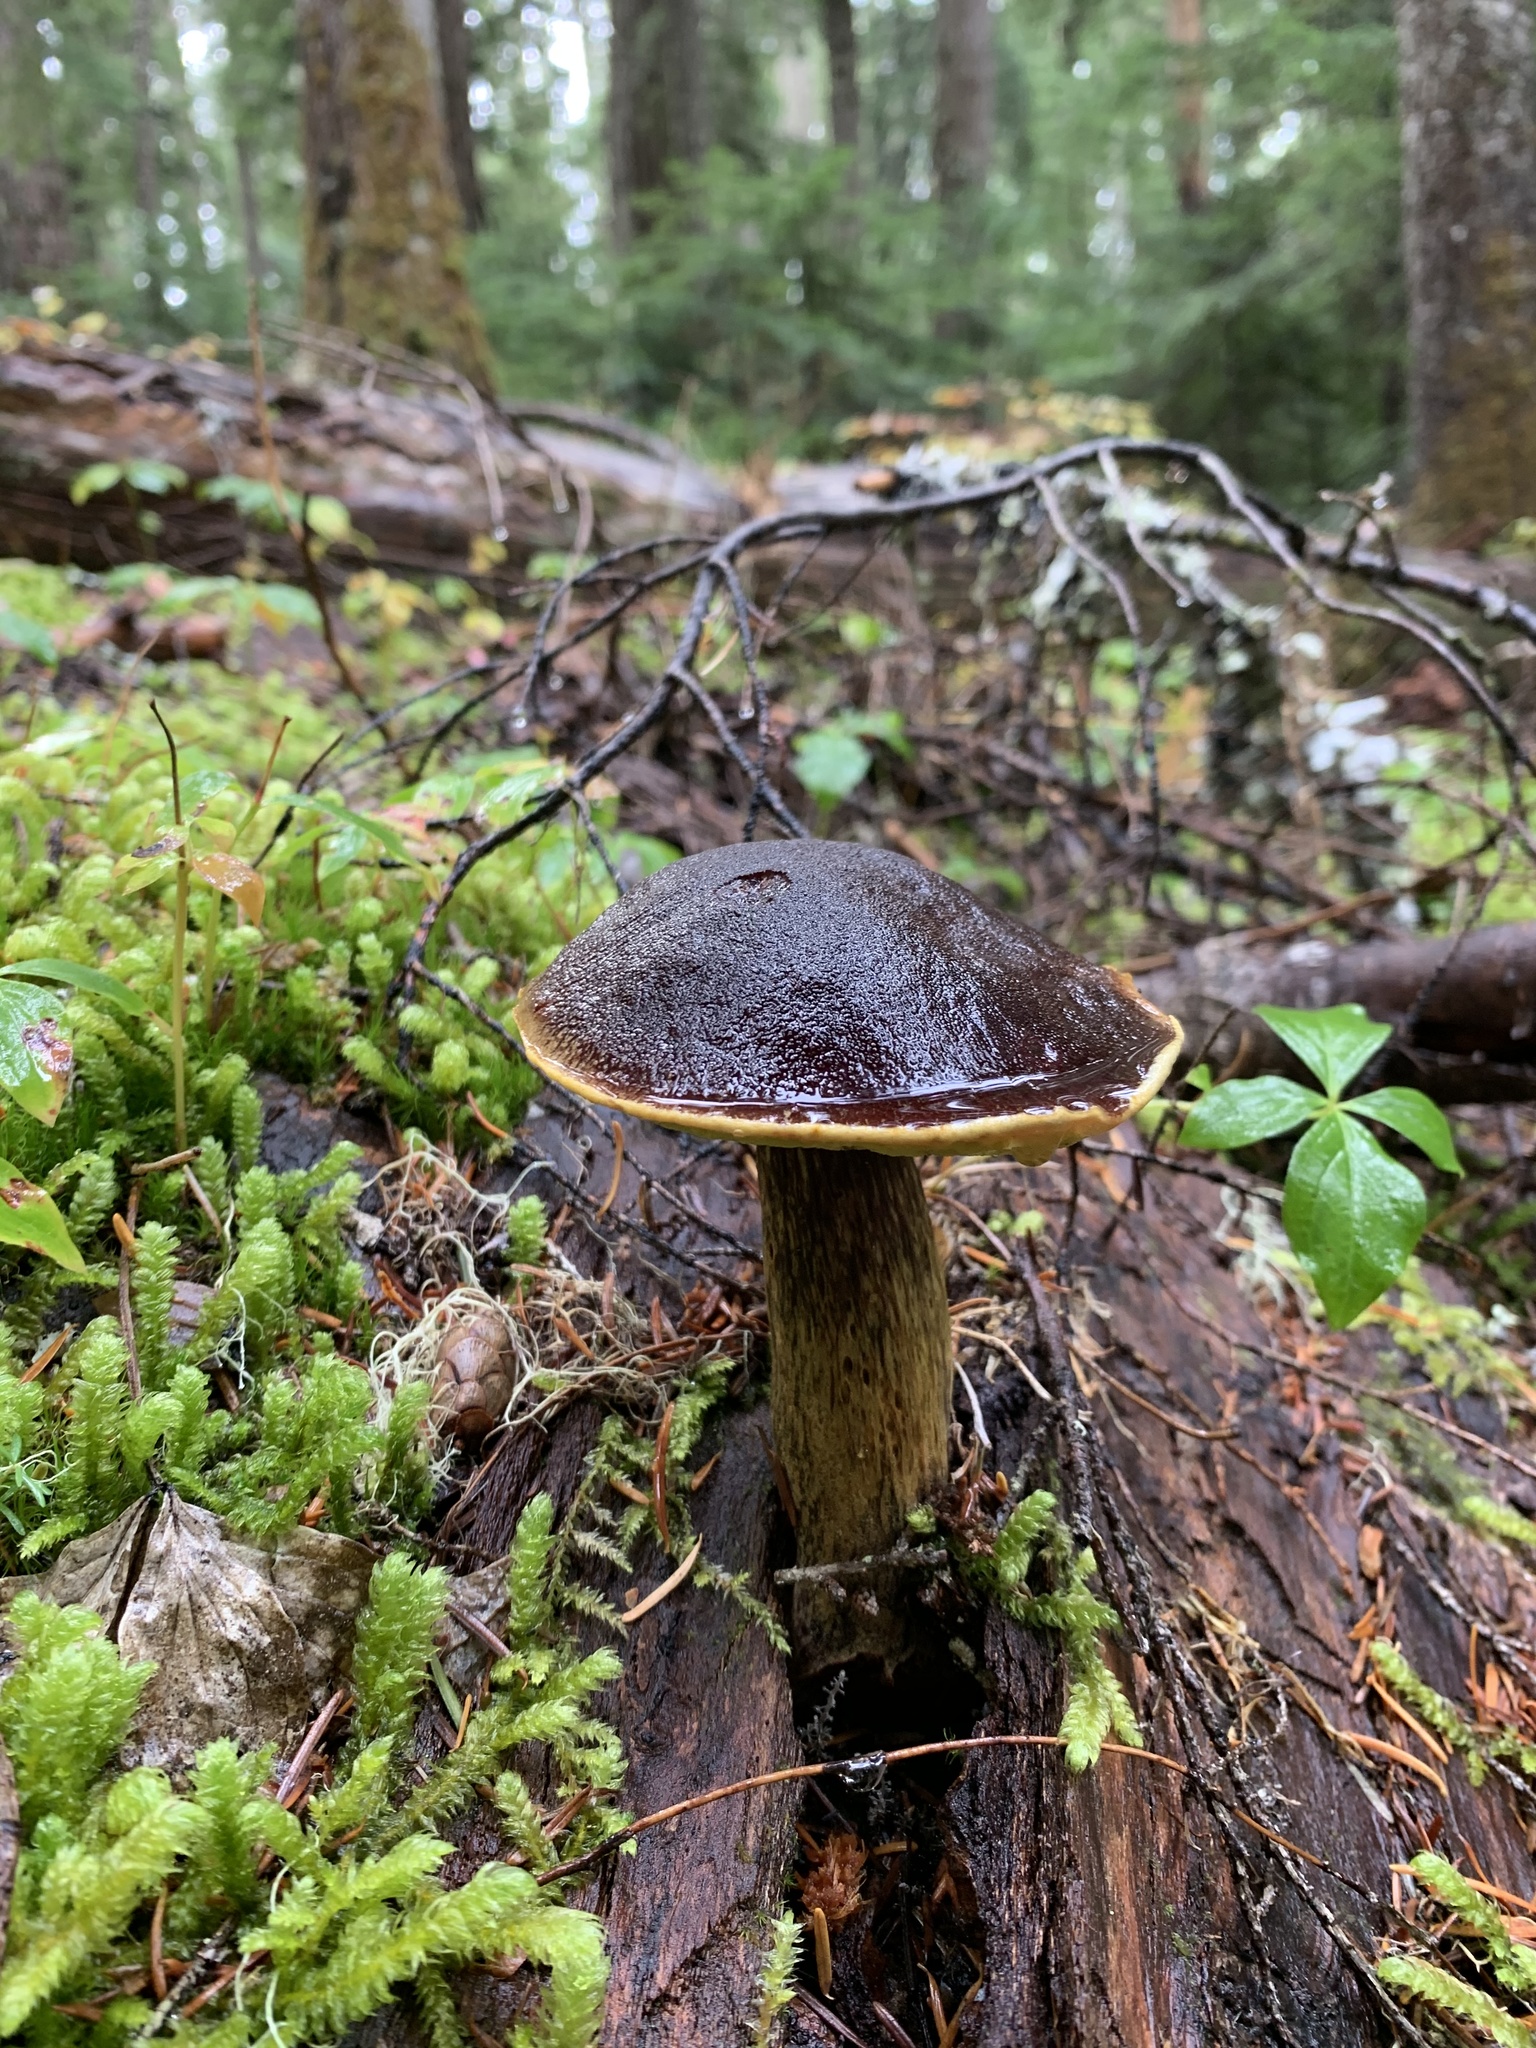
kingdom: Fungi
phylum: Basidiomycota
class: Agaricomycetes
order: Boletales
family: Boletaceae
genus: Aureoboletus
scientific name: Aureoboletus mirabilis
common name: Admirable bolete
